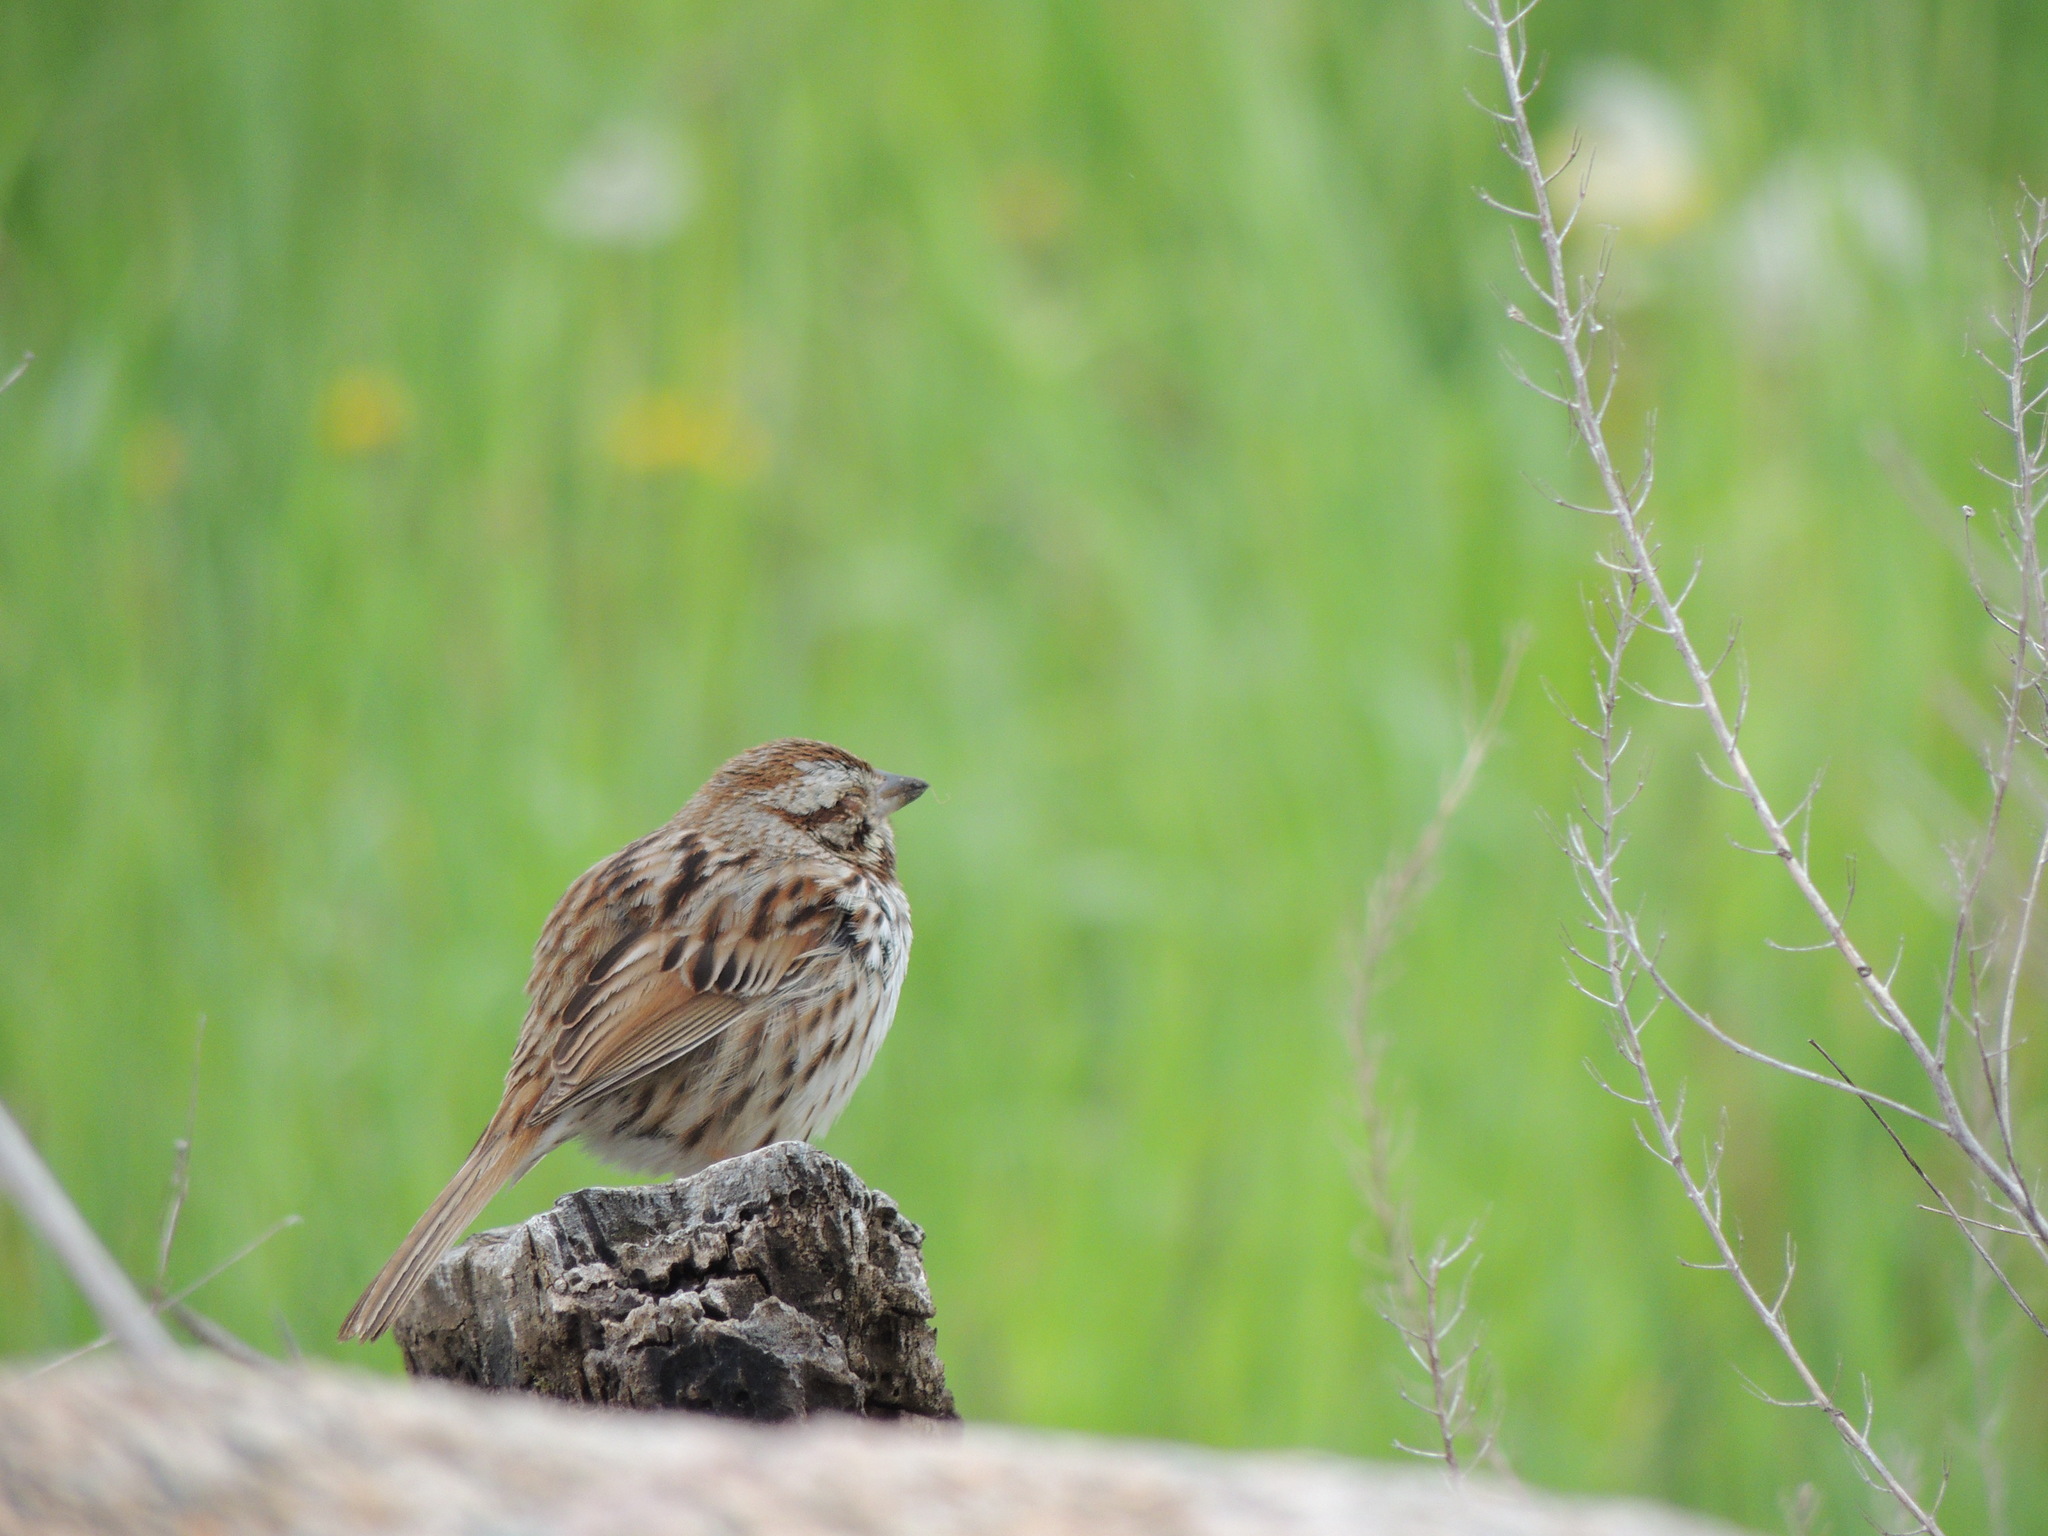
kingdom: Animalia
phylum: Chordata
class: Aves
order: Passeriformes
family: Passerellidae
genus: Melospiza
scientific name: Melospiza melodia
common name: Song sparrow
